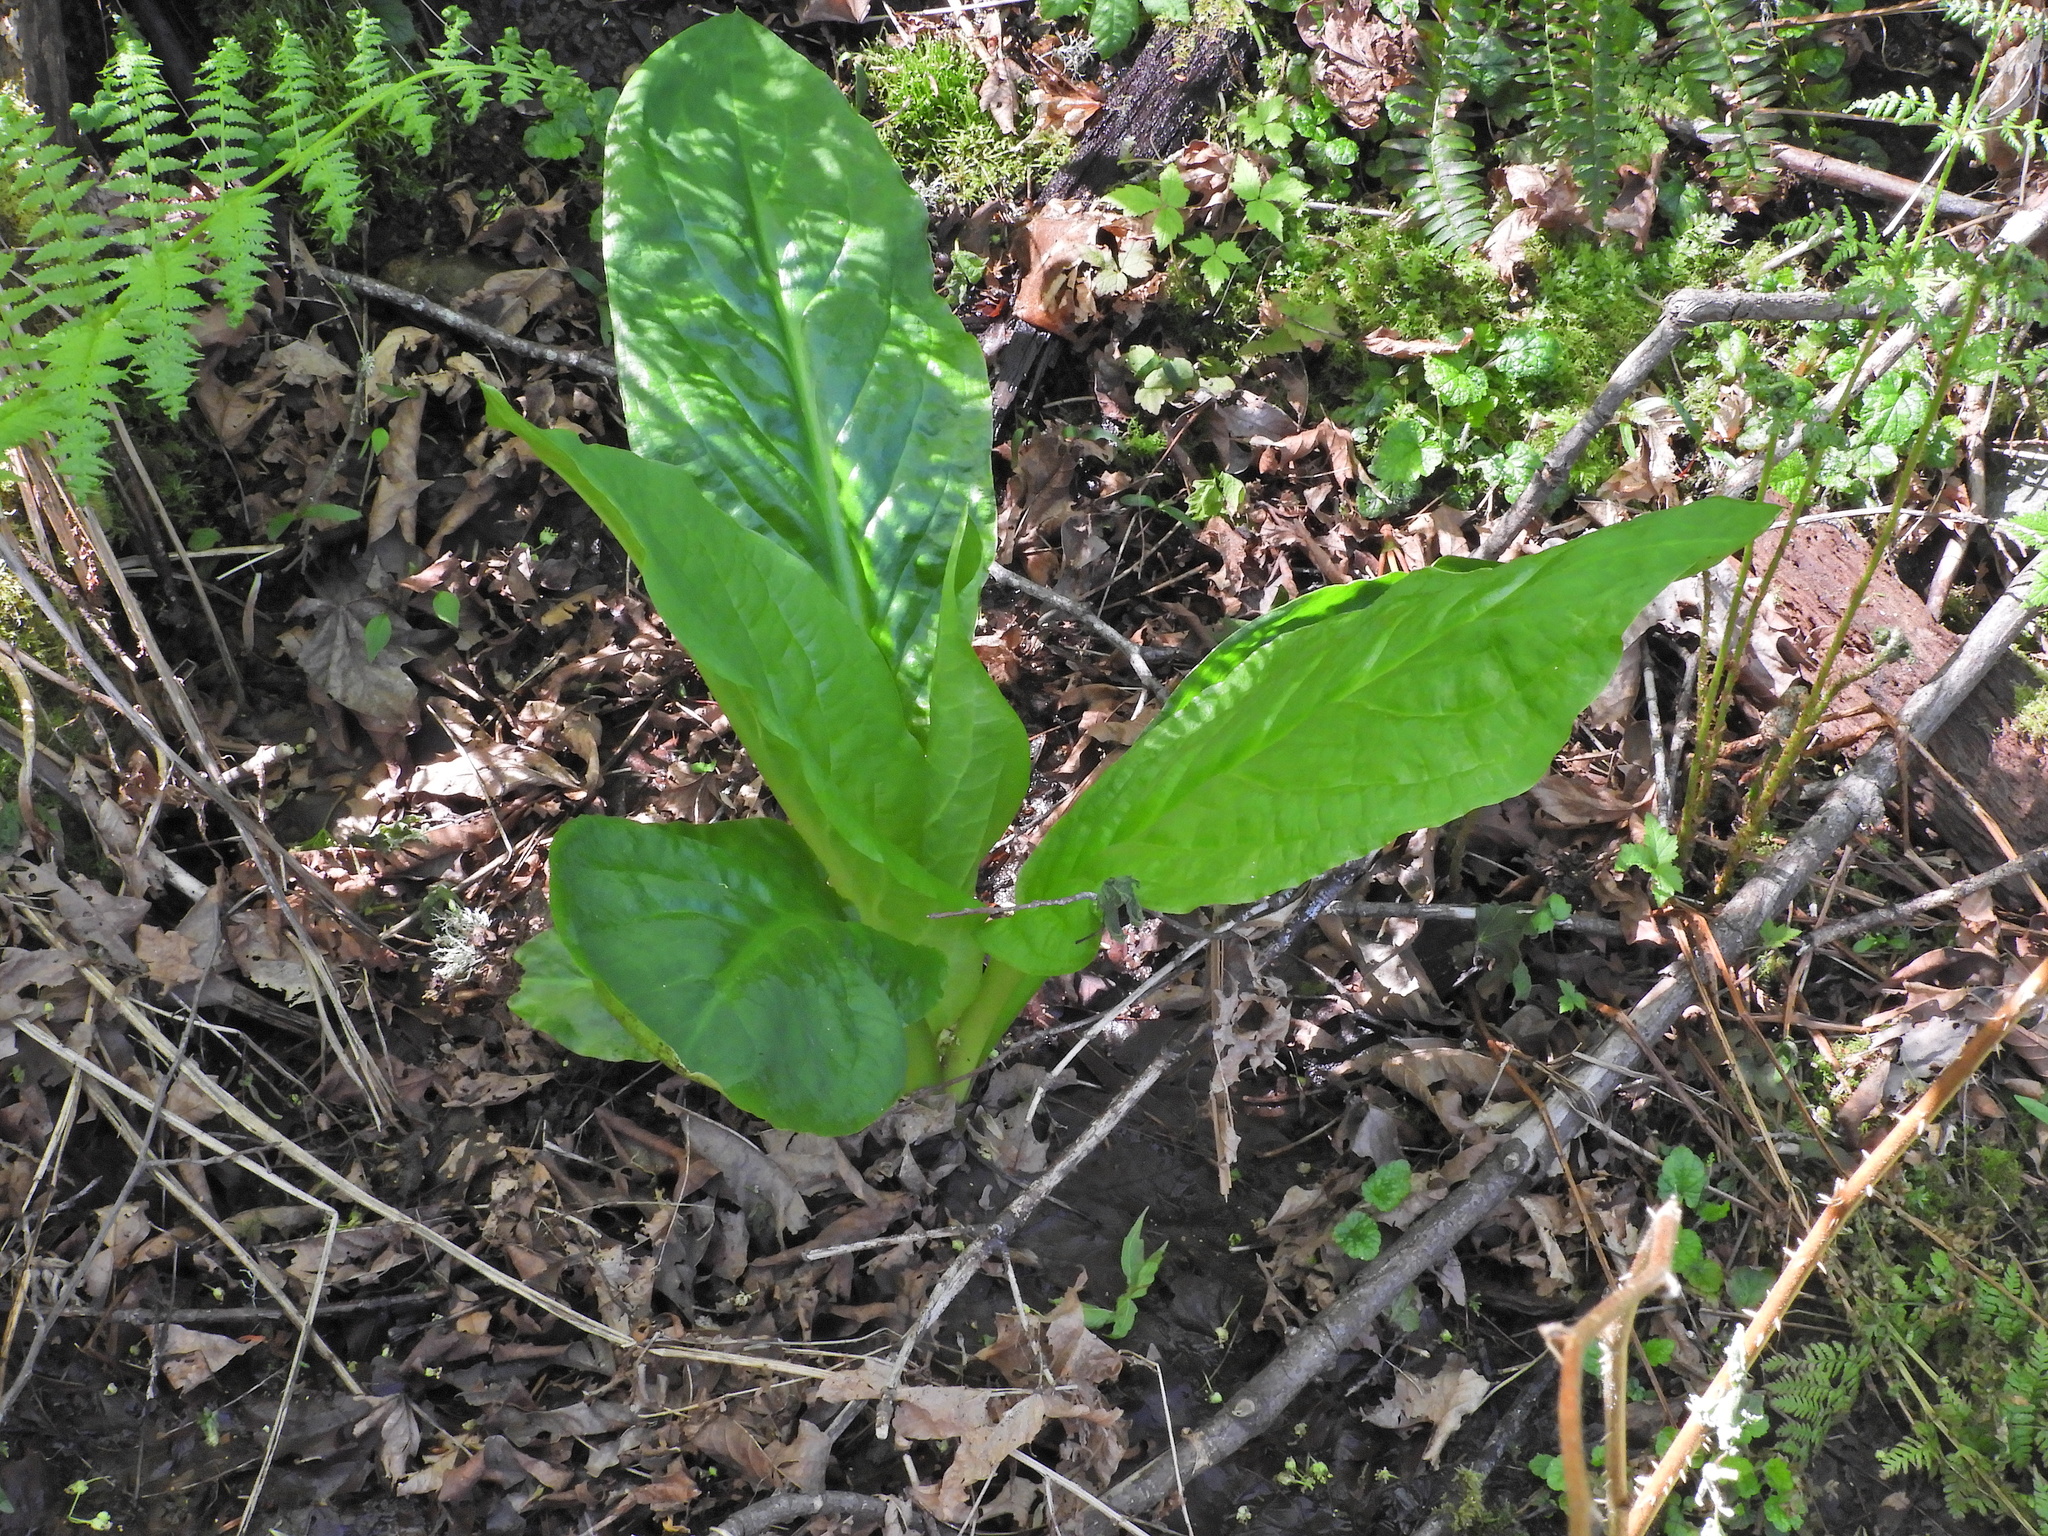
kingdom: Plantae
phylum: Tracheophyta
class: Liliopsida
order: Alismatales
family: Araceae
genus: Lysichiton
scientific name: Lysichiton americanus
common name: American skunk cabbage
